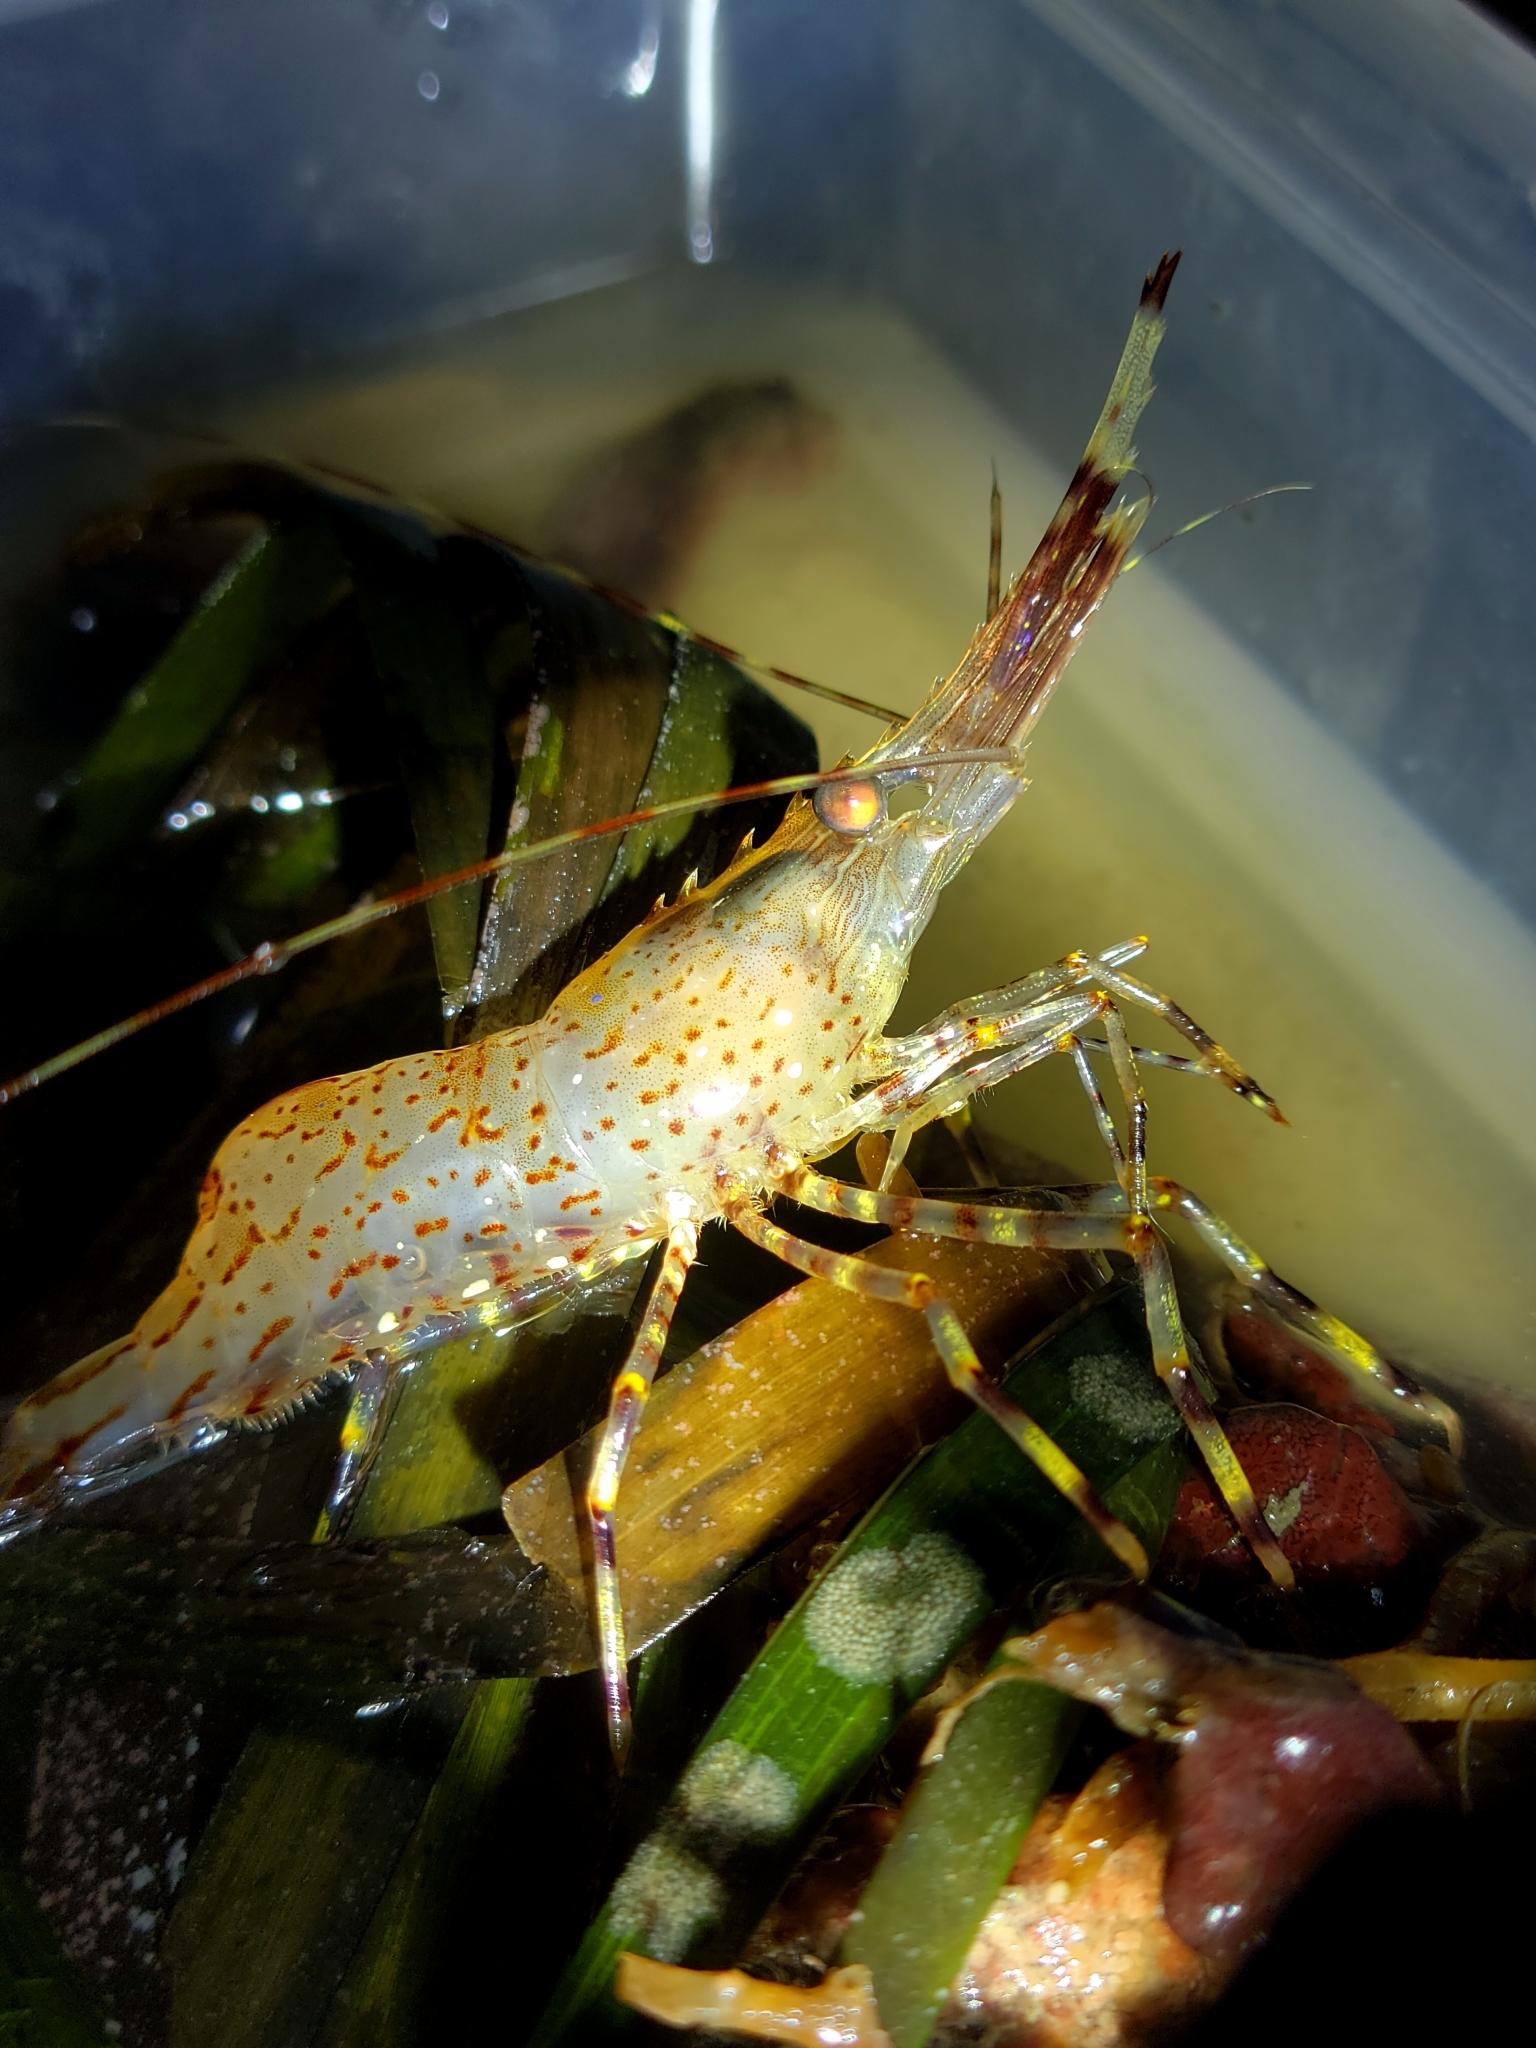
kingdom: Animalia
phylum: Arthropoda
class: Malacostraca
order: Decapoda
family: Pandalidae
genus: Pandalus
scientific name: Pandalus gurneyi
